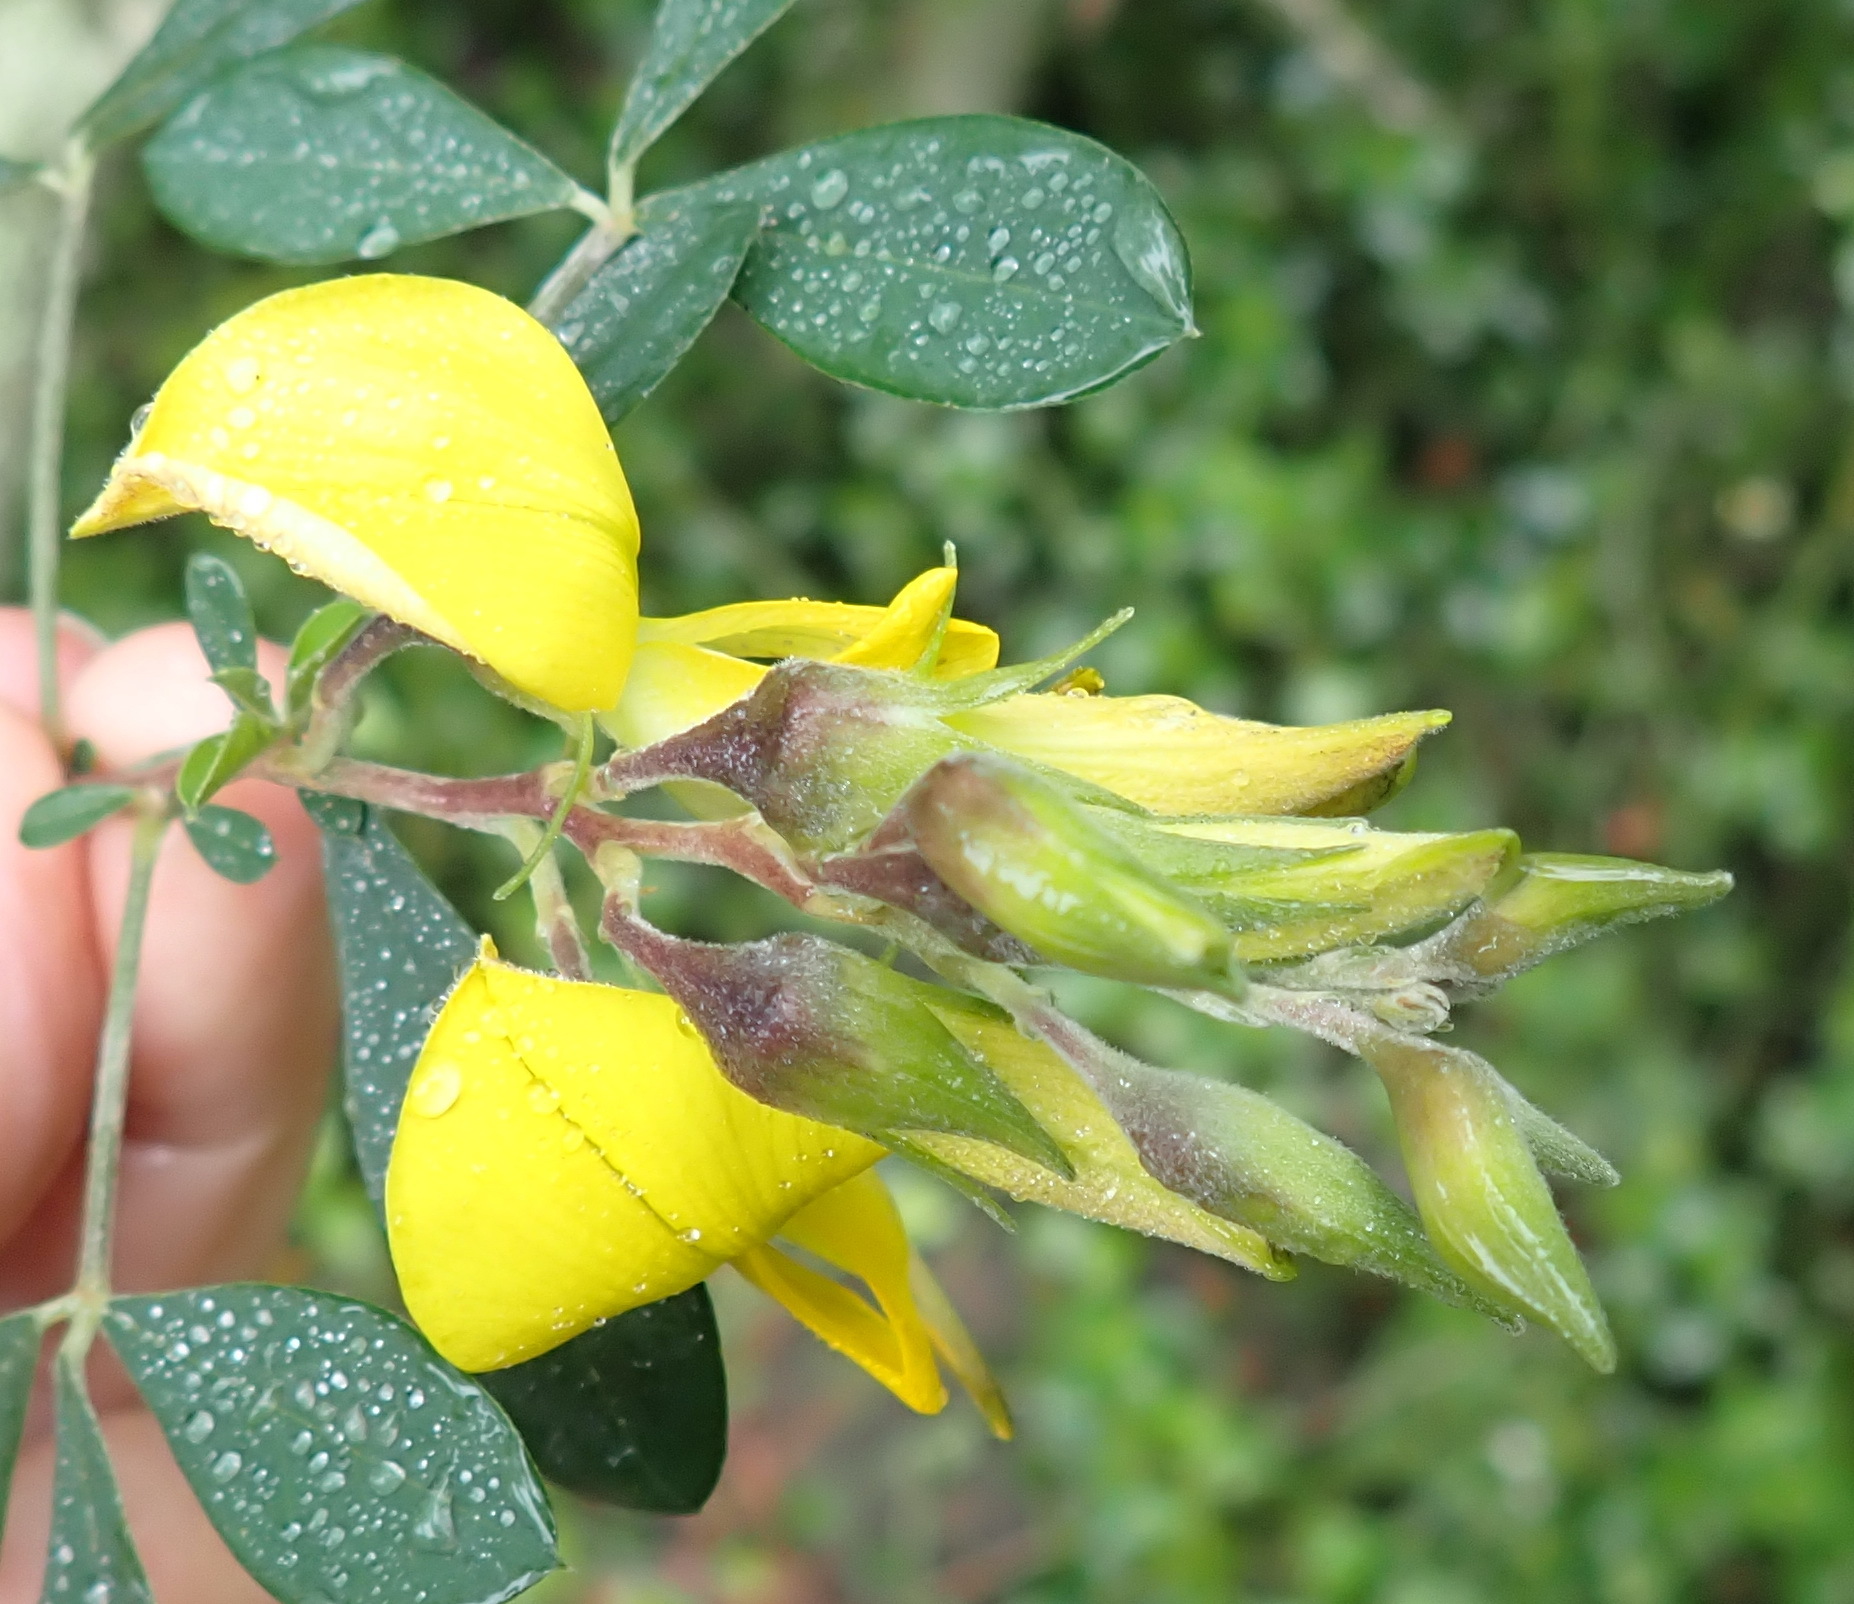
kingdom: Plantae
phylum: Tracheophyta
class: Magnoliopsida
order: Fabales
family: Fabaceae
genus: Crotalaria
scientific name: Crotalaria capensis
